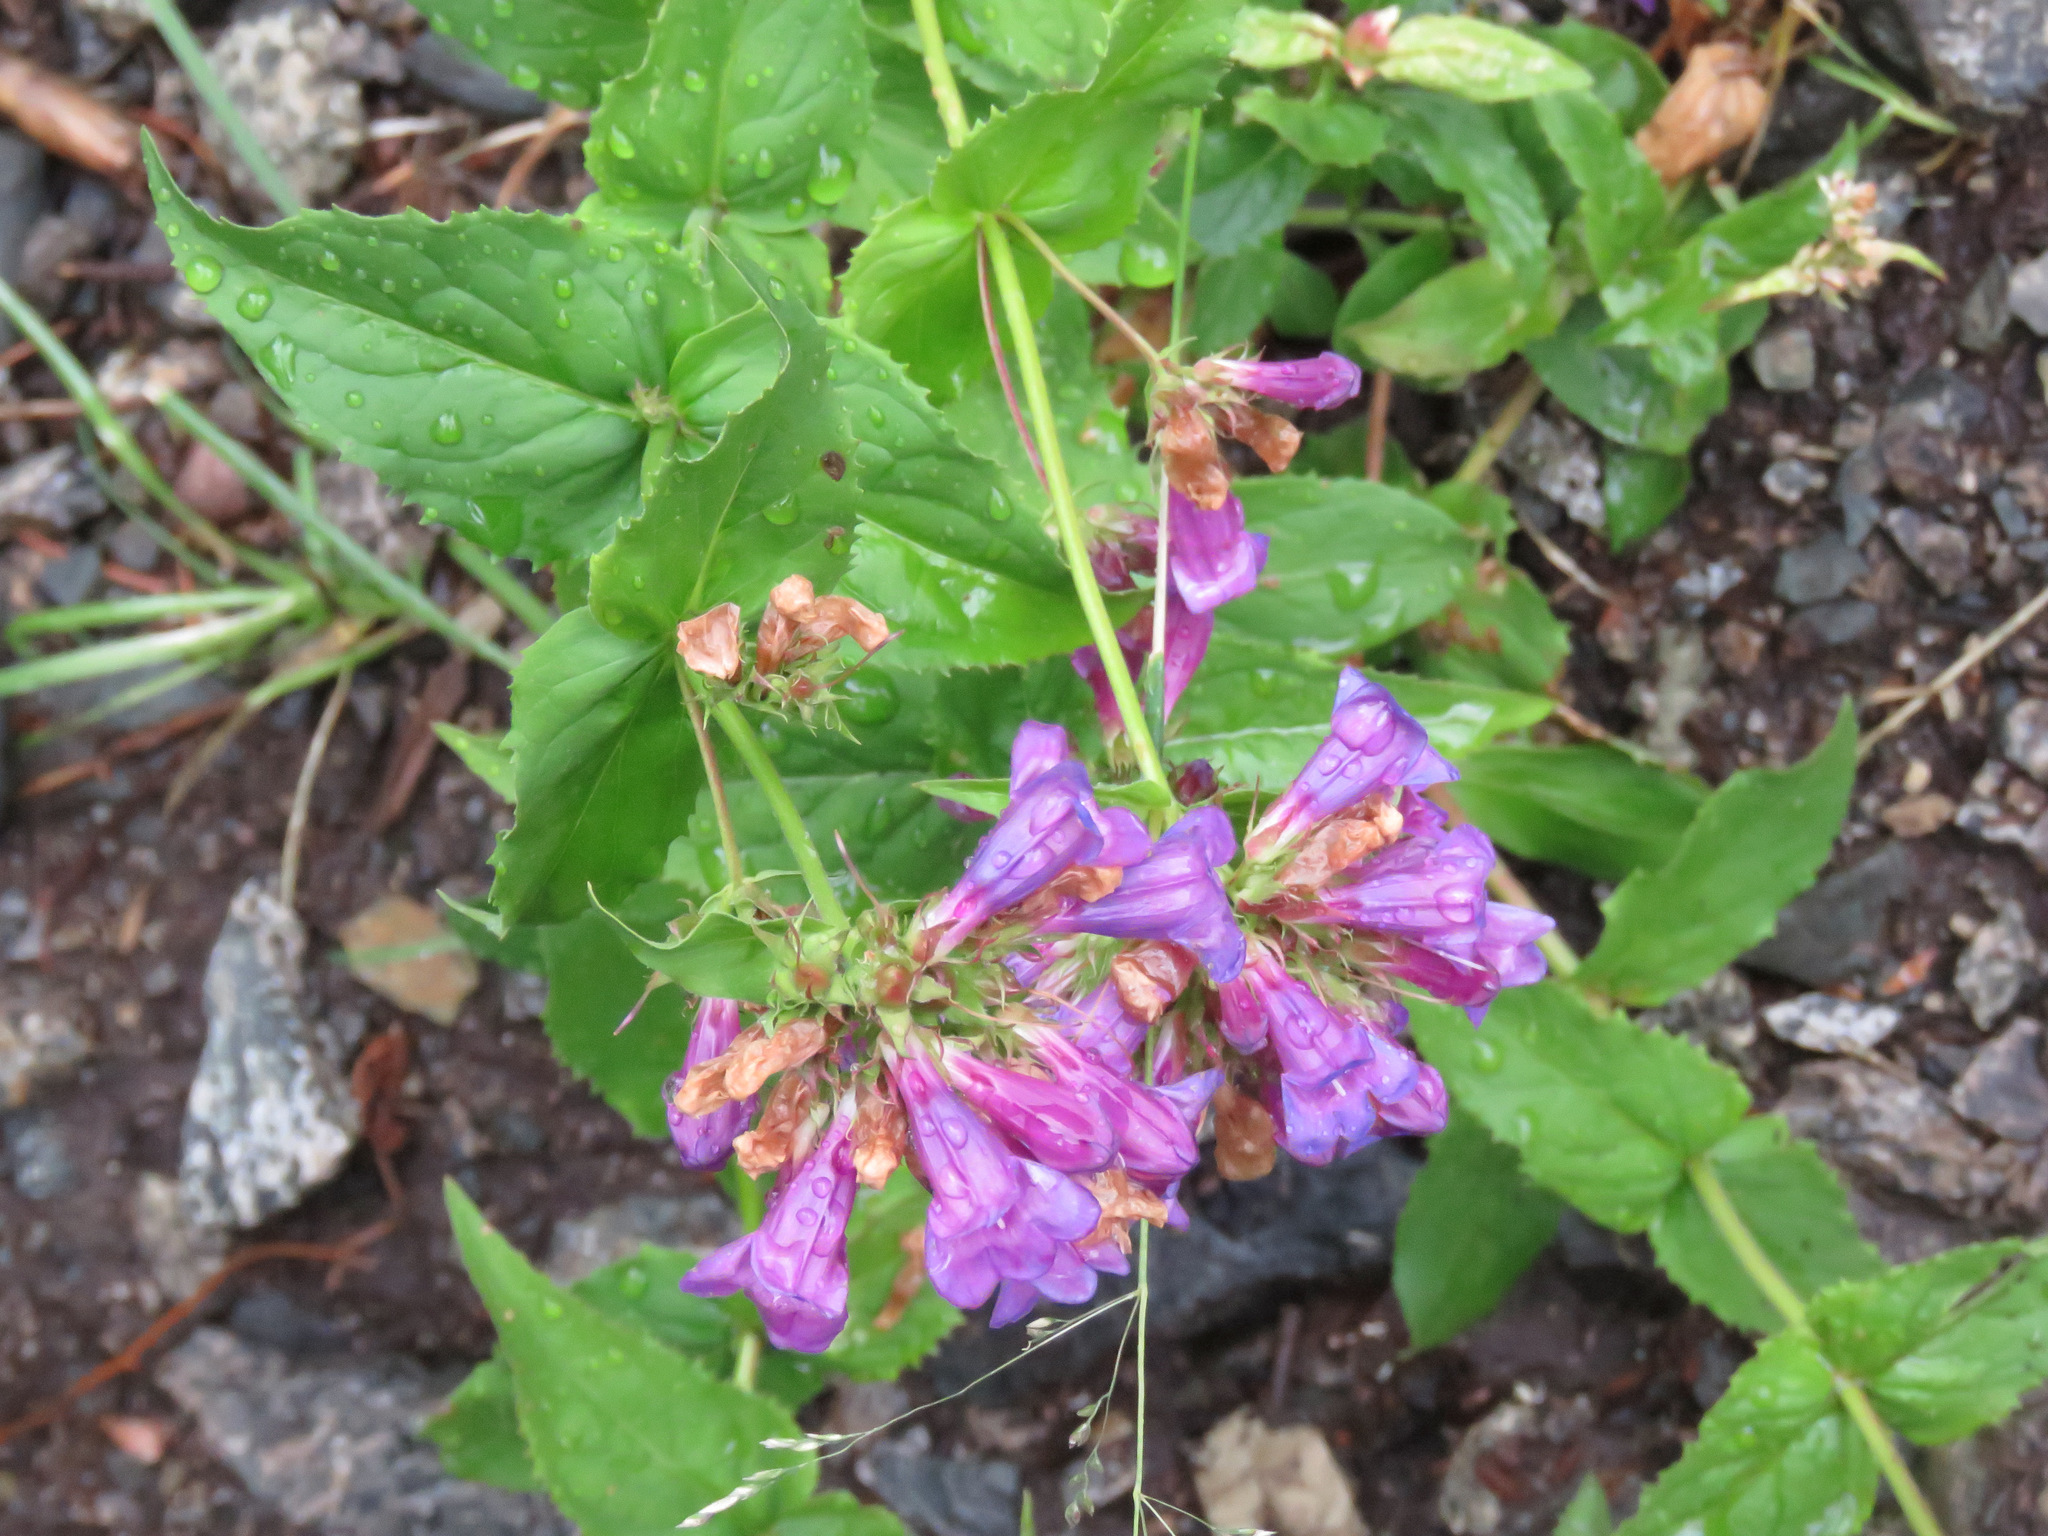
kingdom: Plantae
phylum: Tracheophyta
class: Magnoliopsida
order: Lamiales
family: Plantaginaceae
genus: Penstemon
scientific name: Penstemon serrulatus
